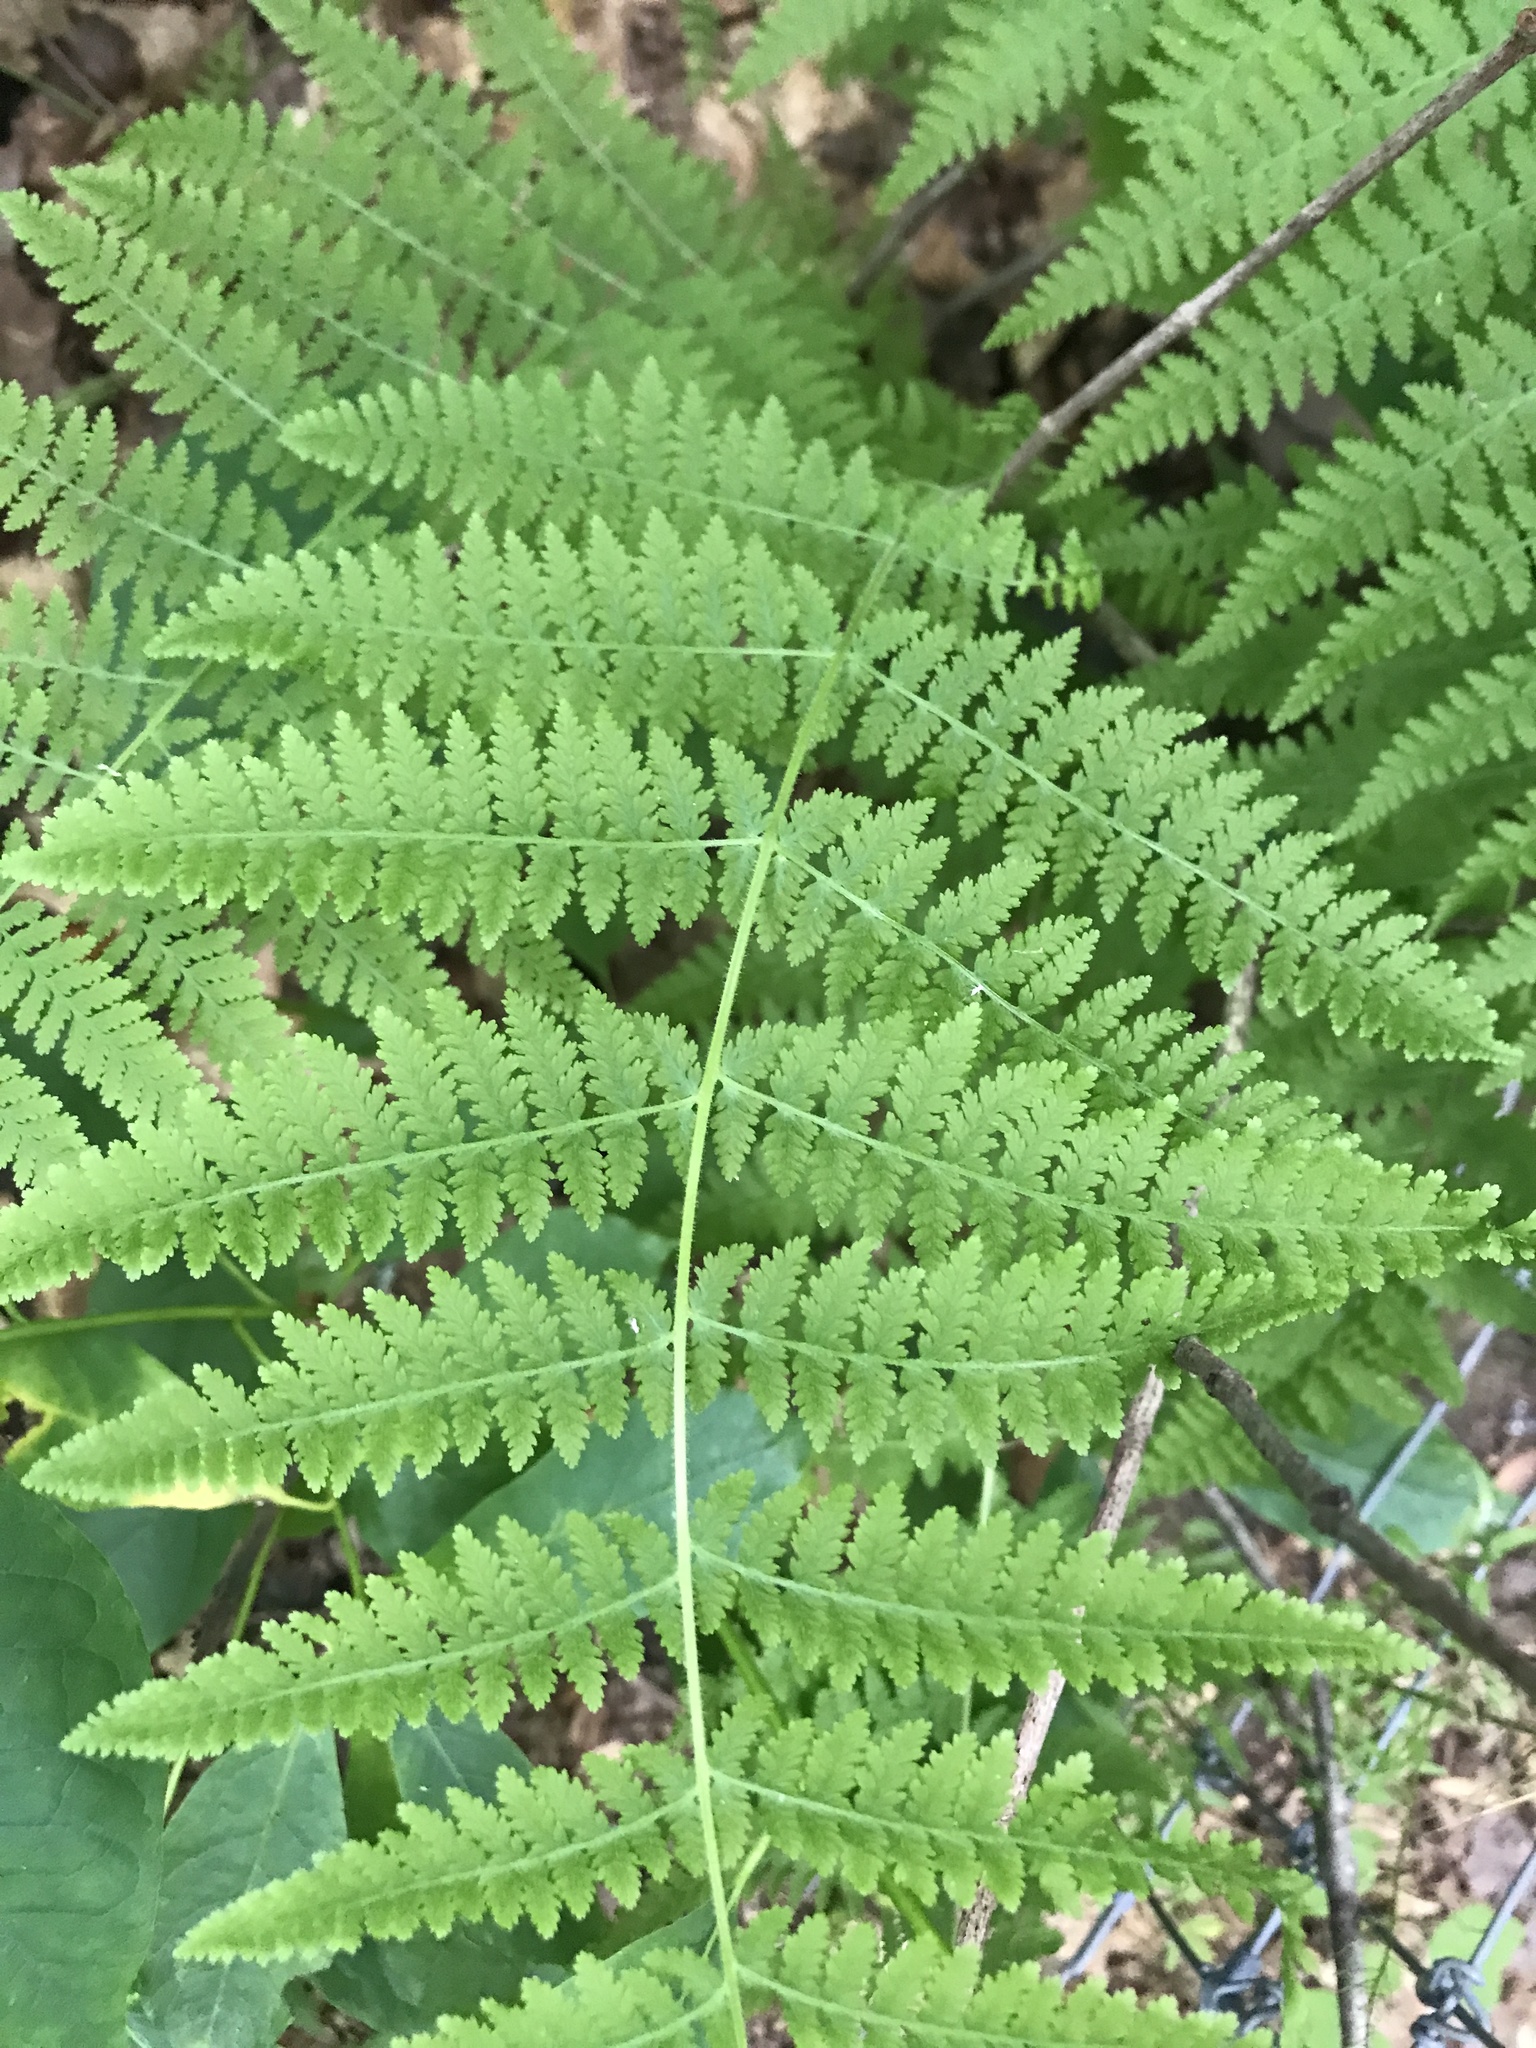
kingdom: Plantae
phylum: Tracheophyta
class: Polypodiopsida
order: Polypodiales
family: Dennstaedtiaceae
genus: Sitobolium
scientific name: Sitobolium punctilobum
